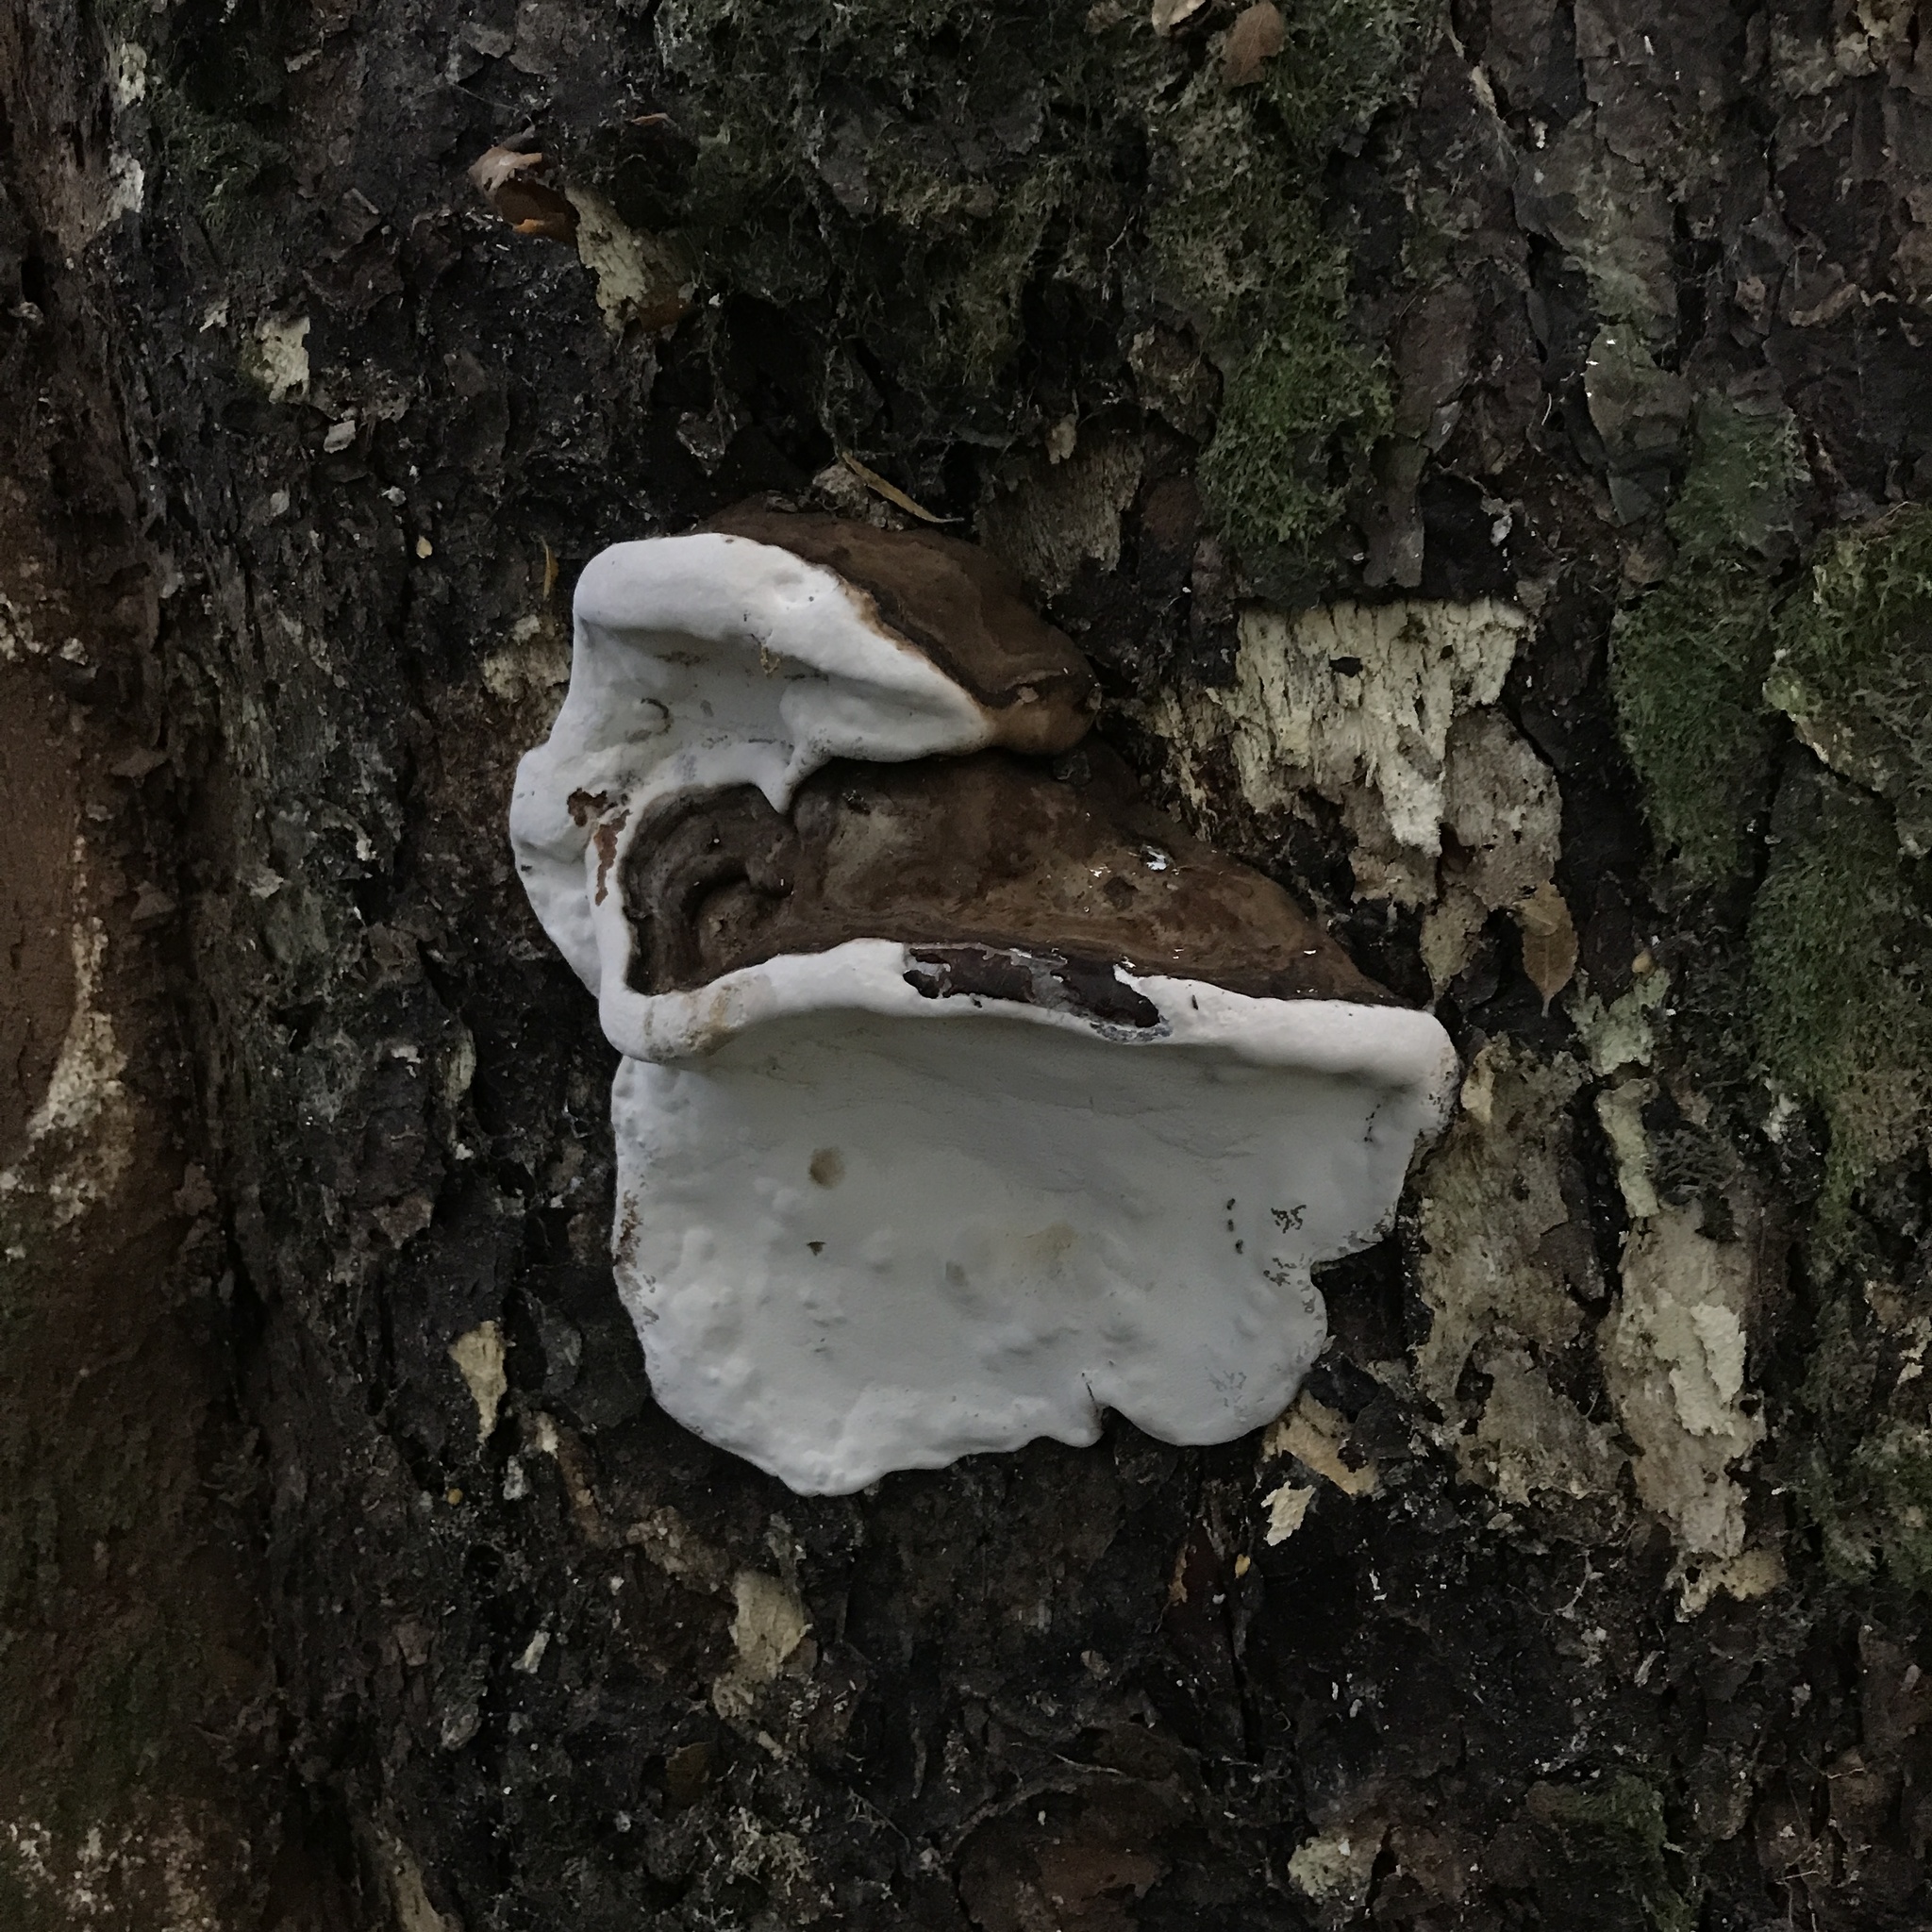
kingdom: Fungi
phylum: Basidiomycota
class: Agaricomycetes
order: Polyporales
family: Polyporaceae
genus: Ganoderma
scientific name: Ganoderma australe
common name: Southern bracket
